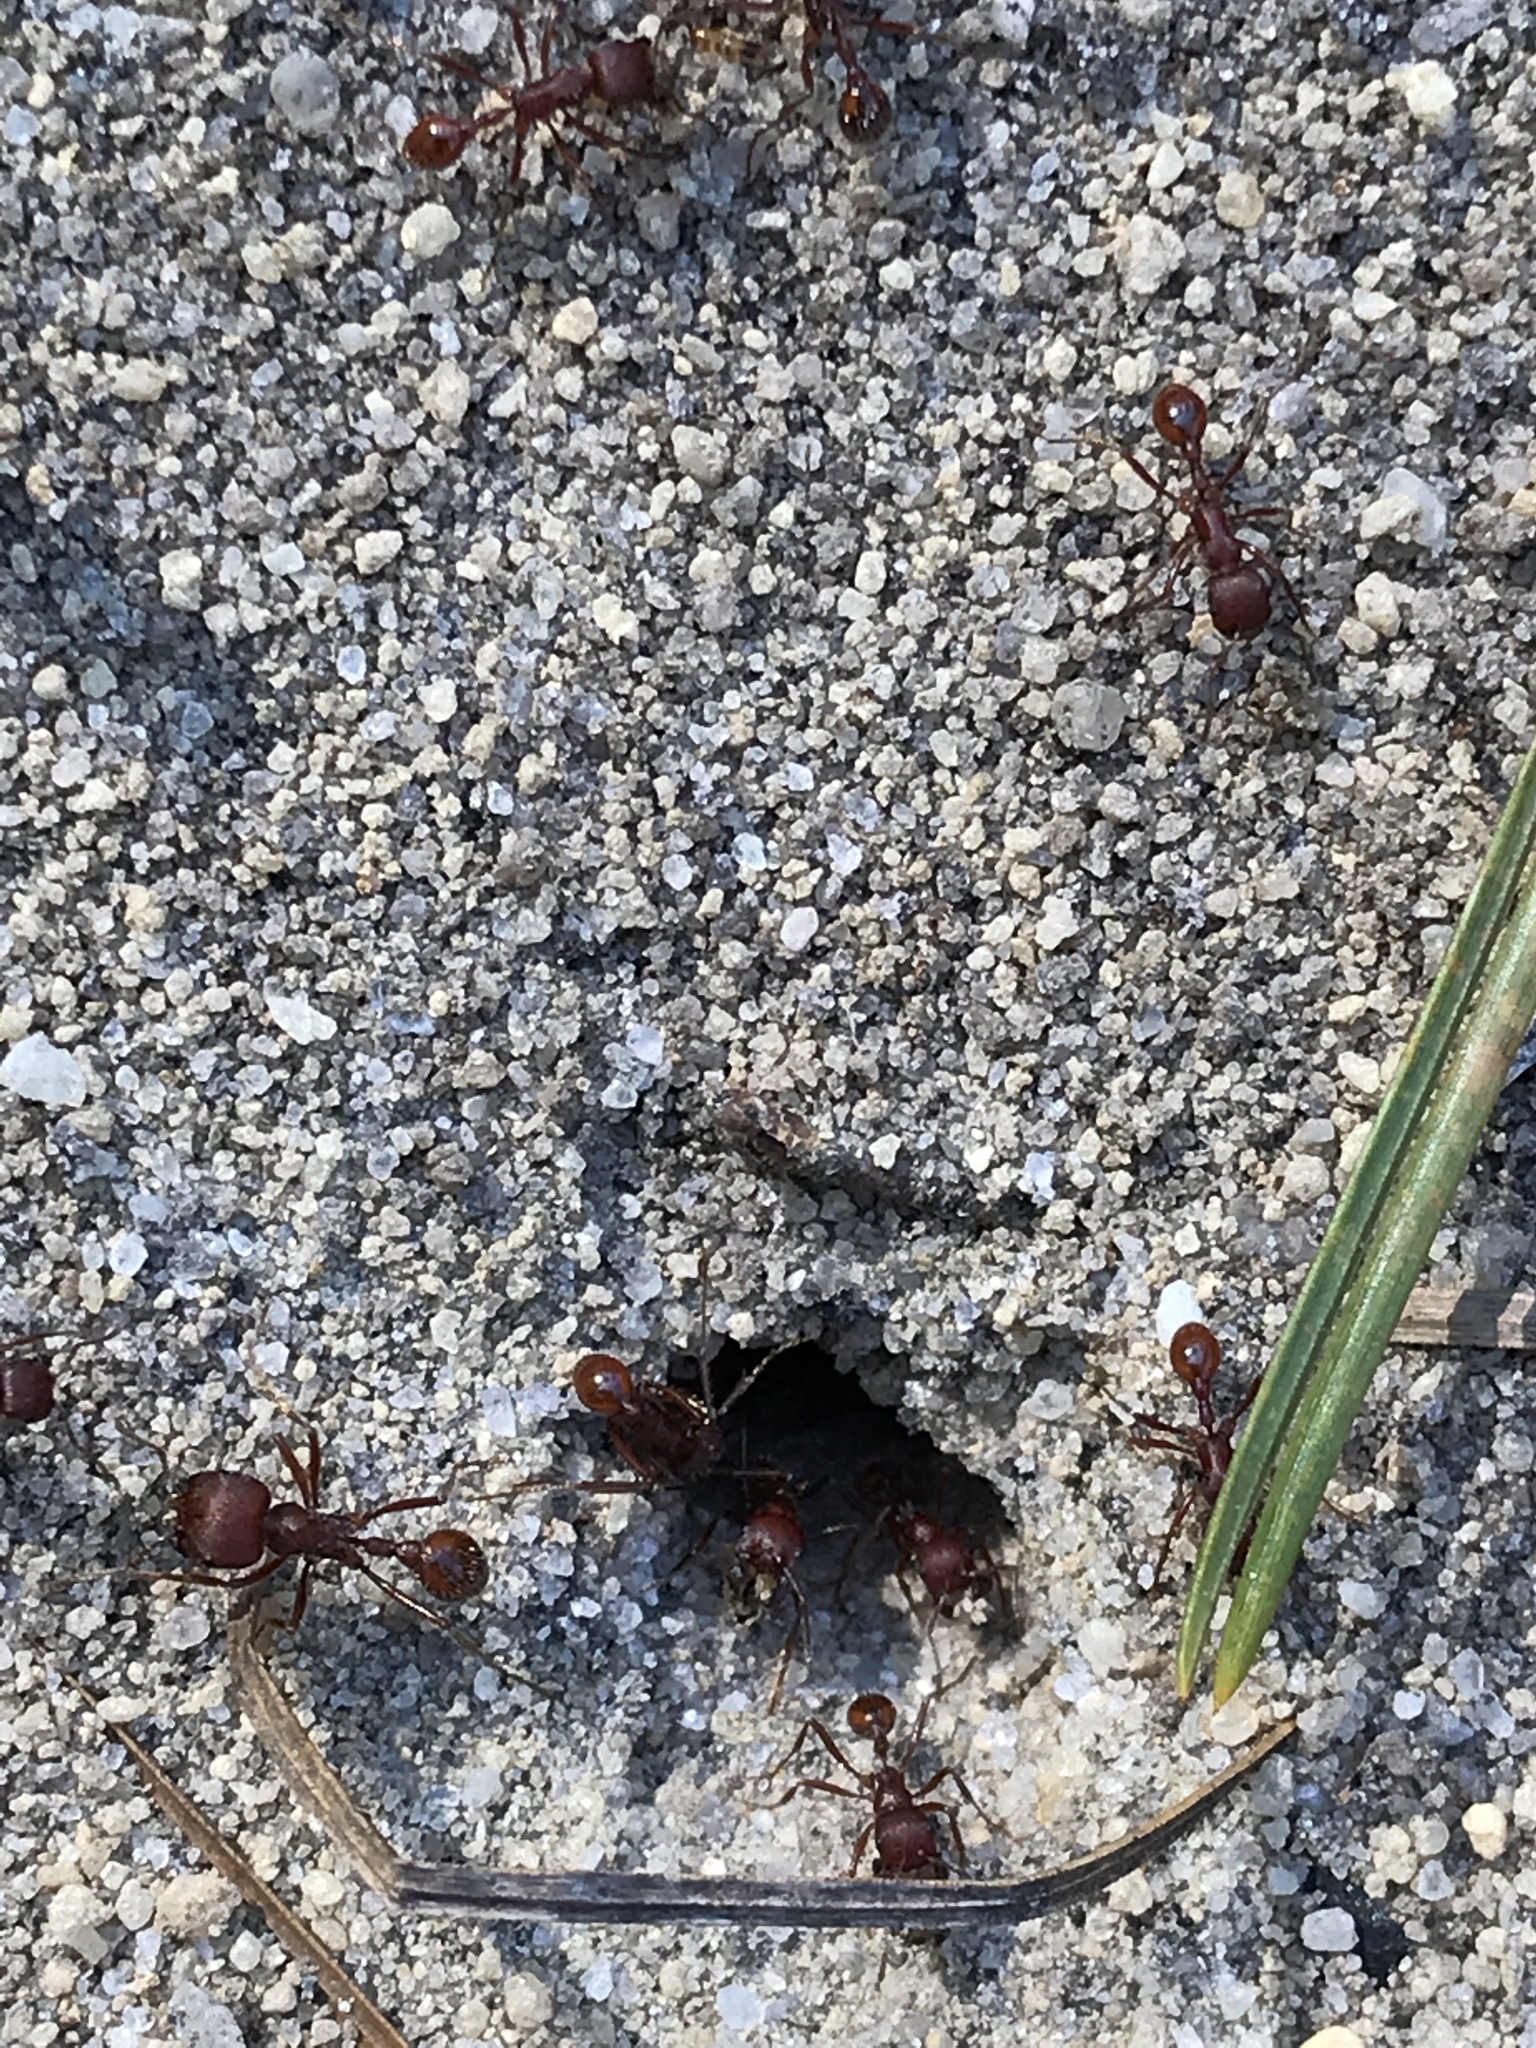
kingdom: Animalia
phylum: Arthropoda
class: Insecta
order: Hymenoptera
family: Formicidae
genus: Pogonomyrmex
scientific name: Pogonomyrmex badius
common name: Florida harvester ant
